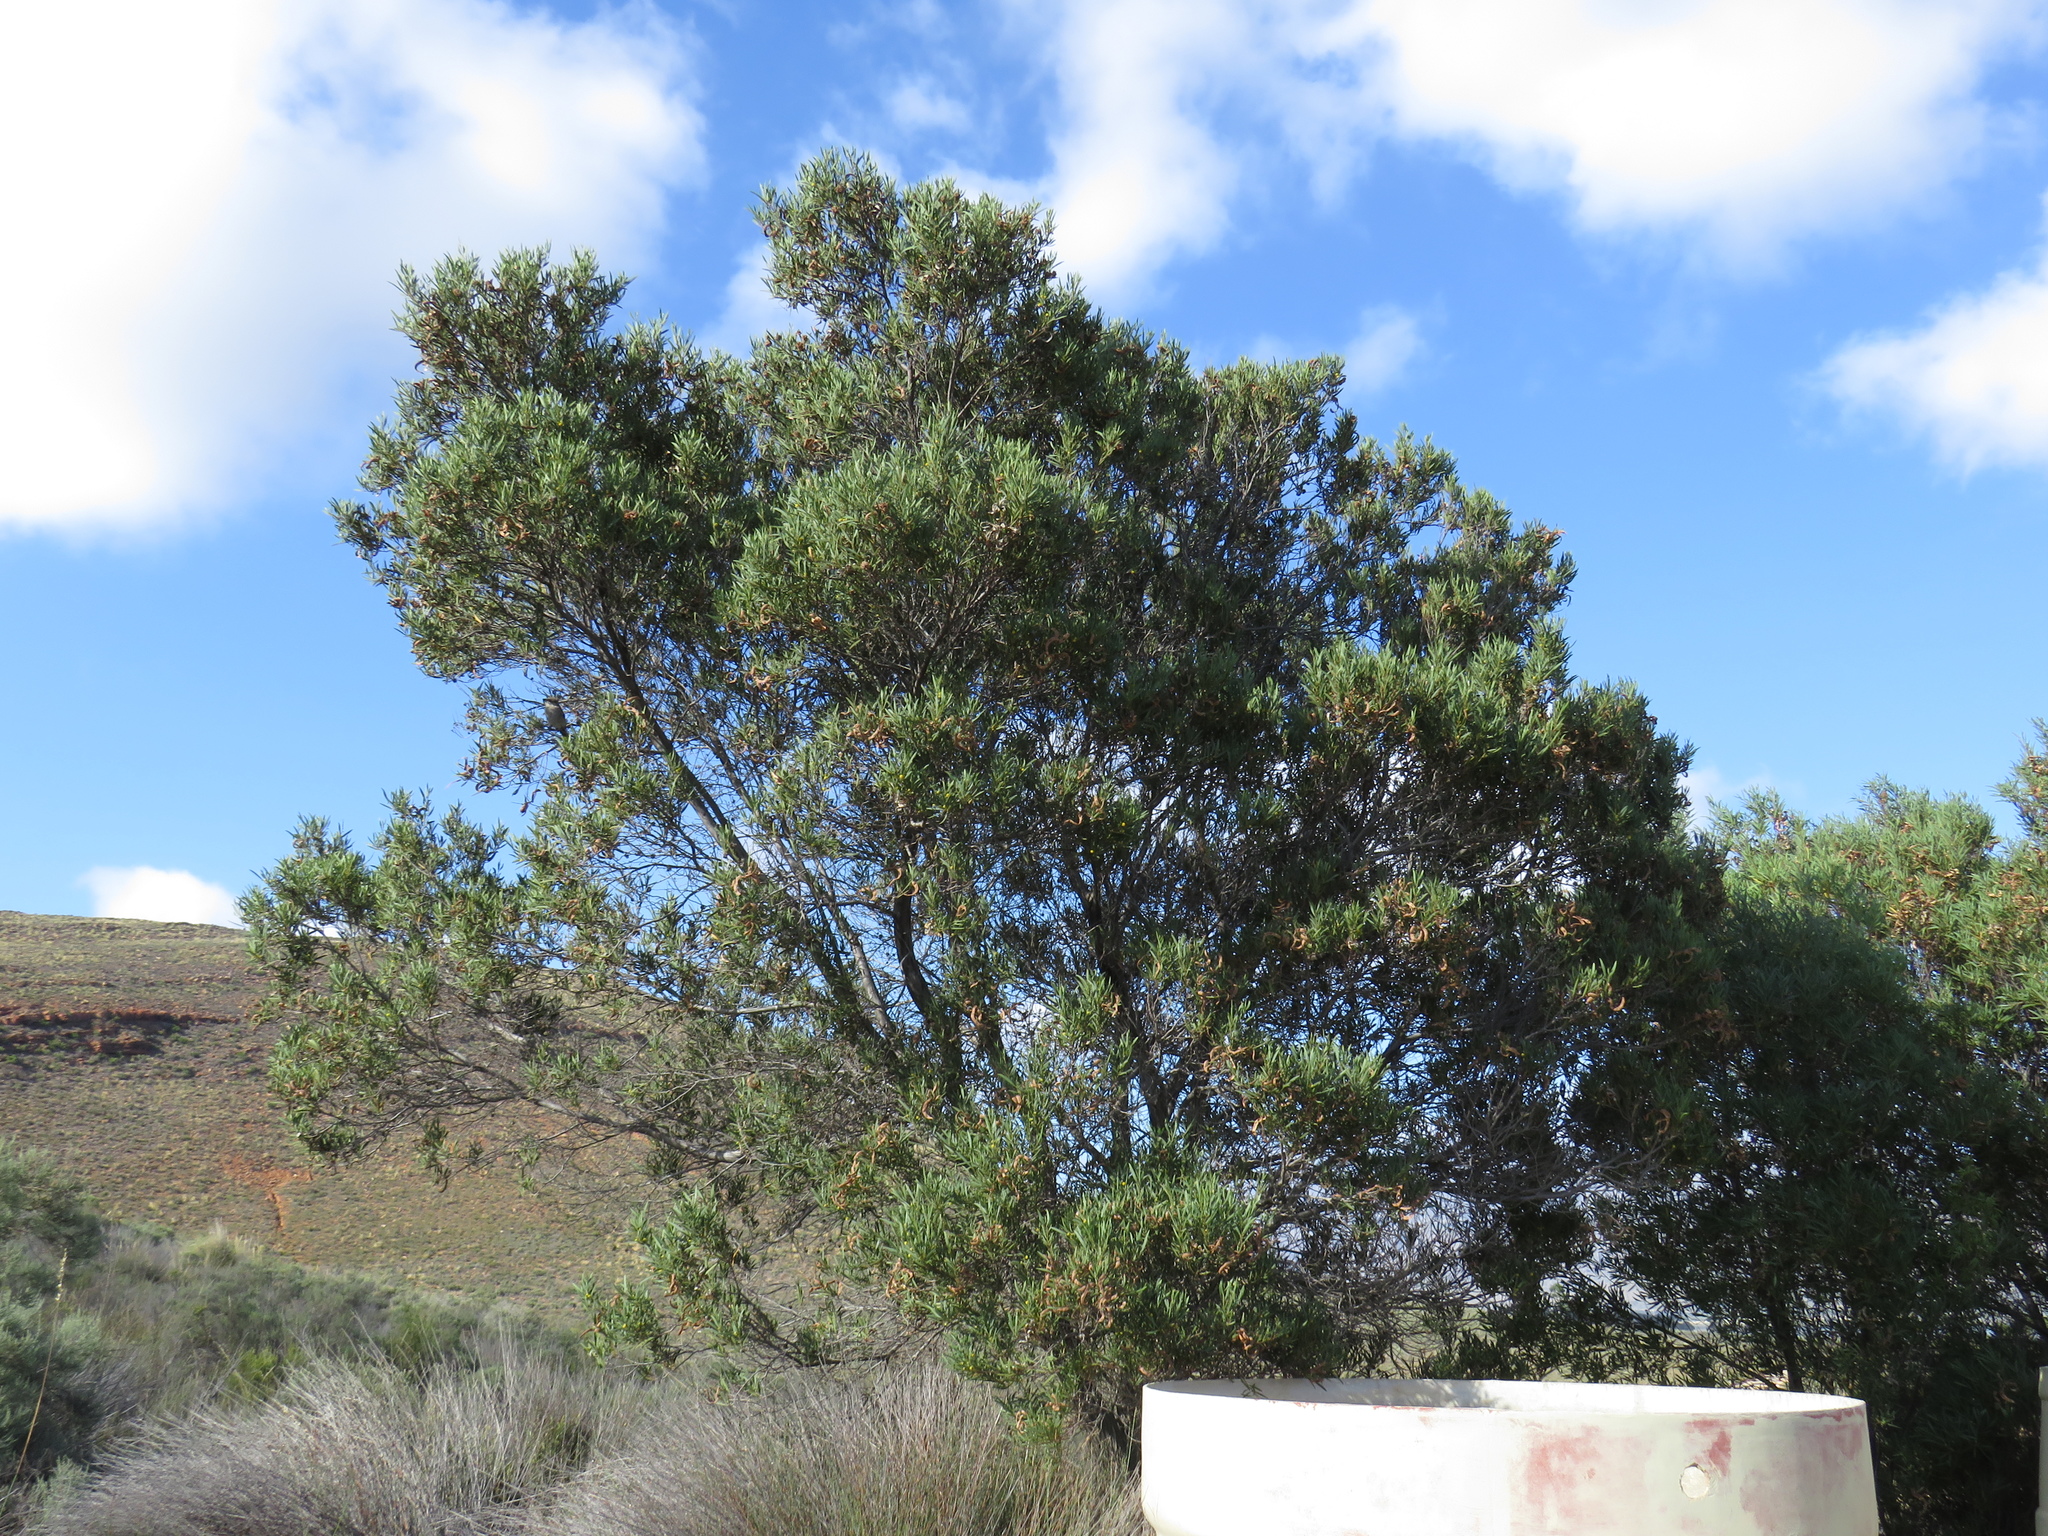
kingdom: Plantae
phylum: Tracheophyta
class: Magnoliopsida
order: Fabales
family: Fabaceae
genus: Acacia
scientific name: Acacia cyclops
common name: Coastal wattle
